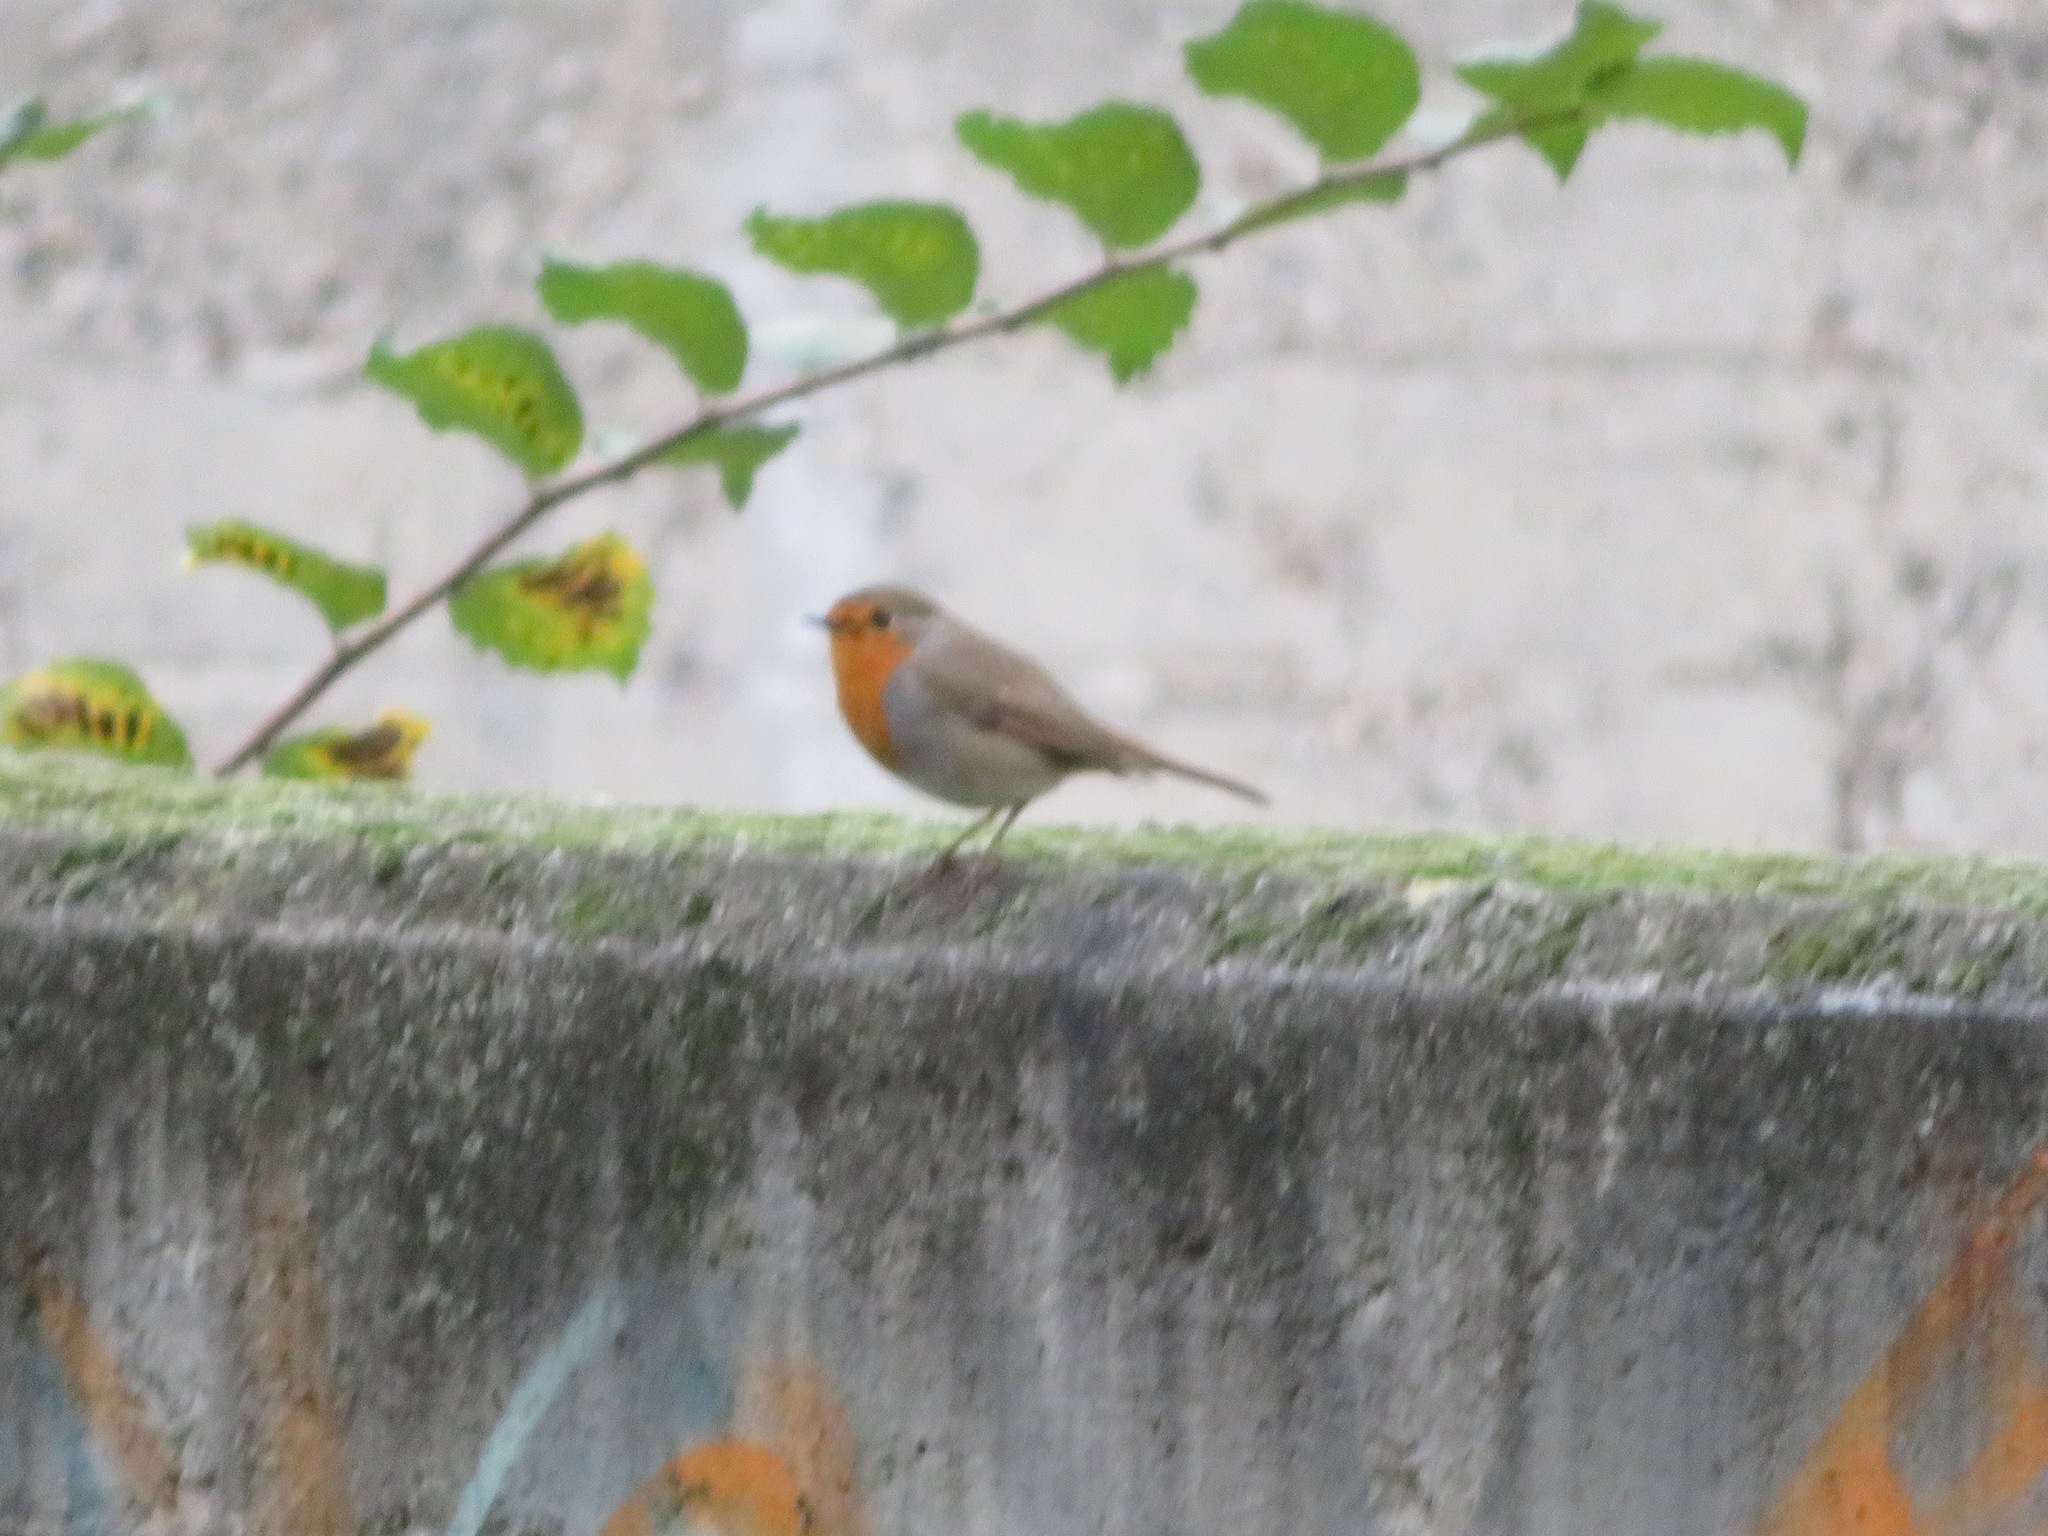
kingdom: Animalia
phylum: Chordata
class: Aves
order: Passeriformes
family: Muscicapidae
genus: Erithacus
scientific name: Erithacus rubecula
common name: European robin
